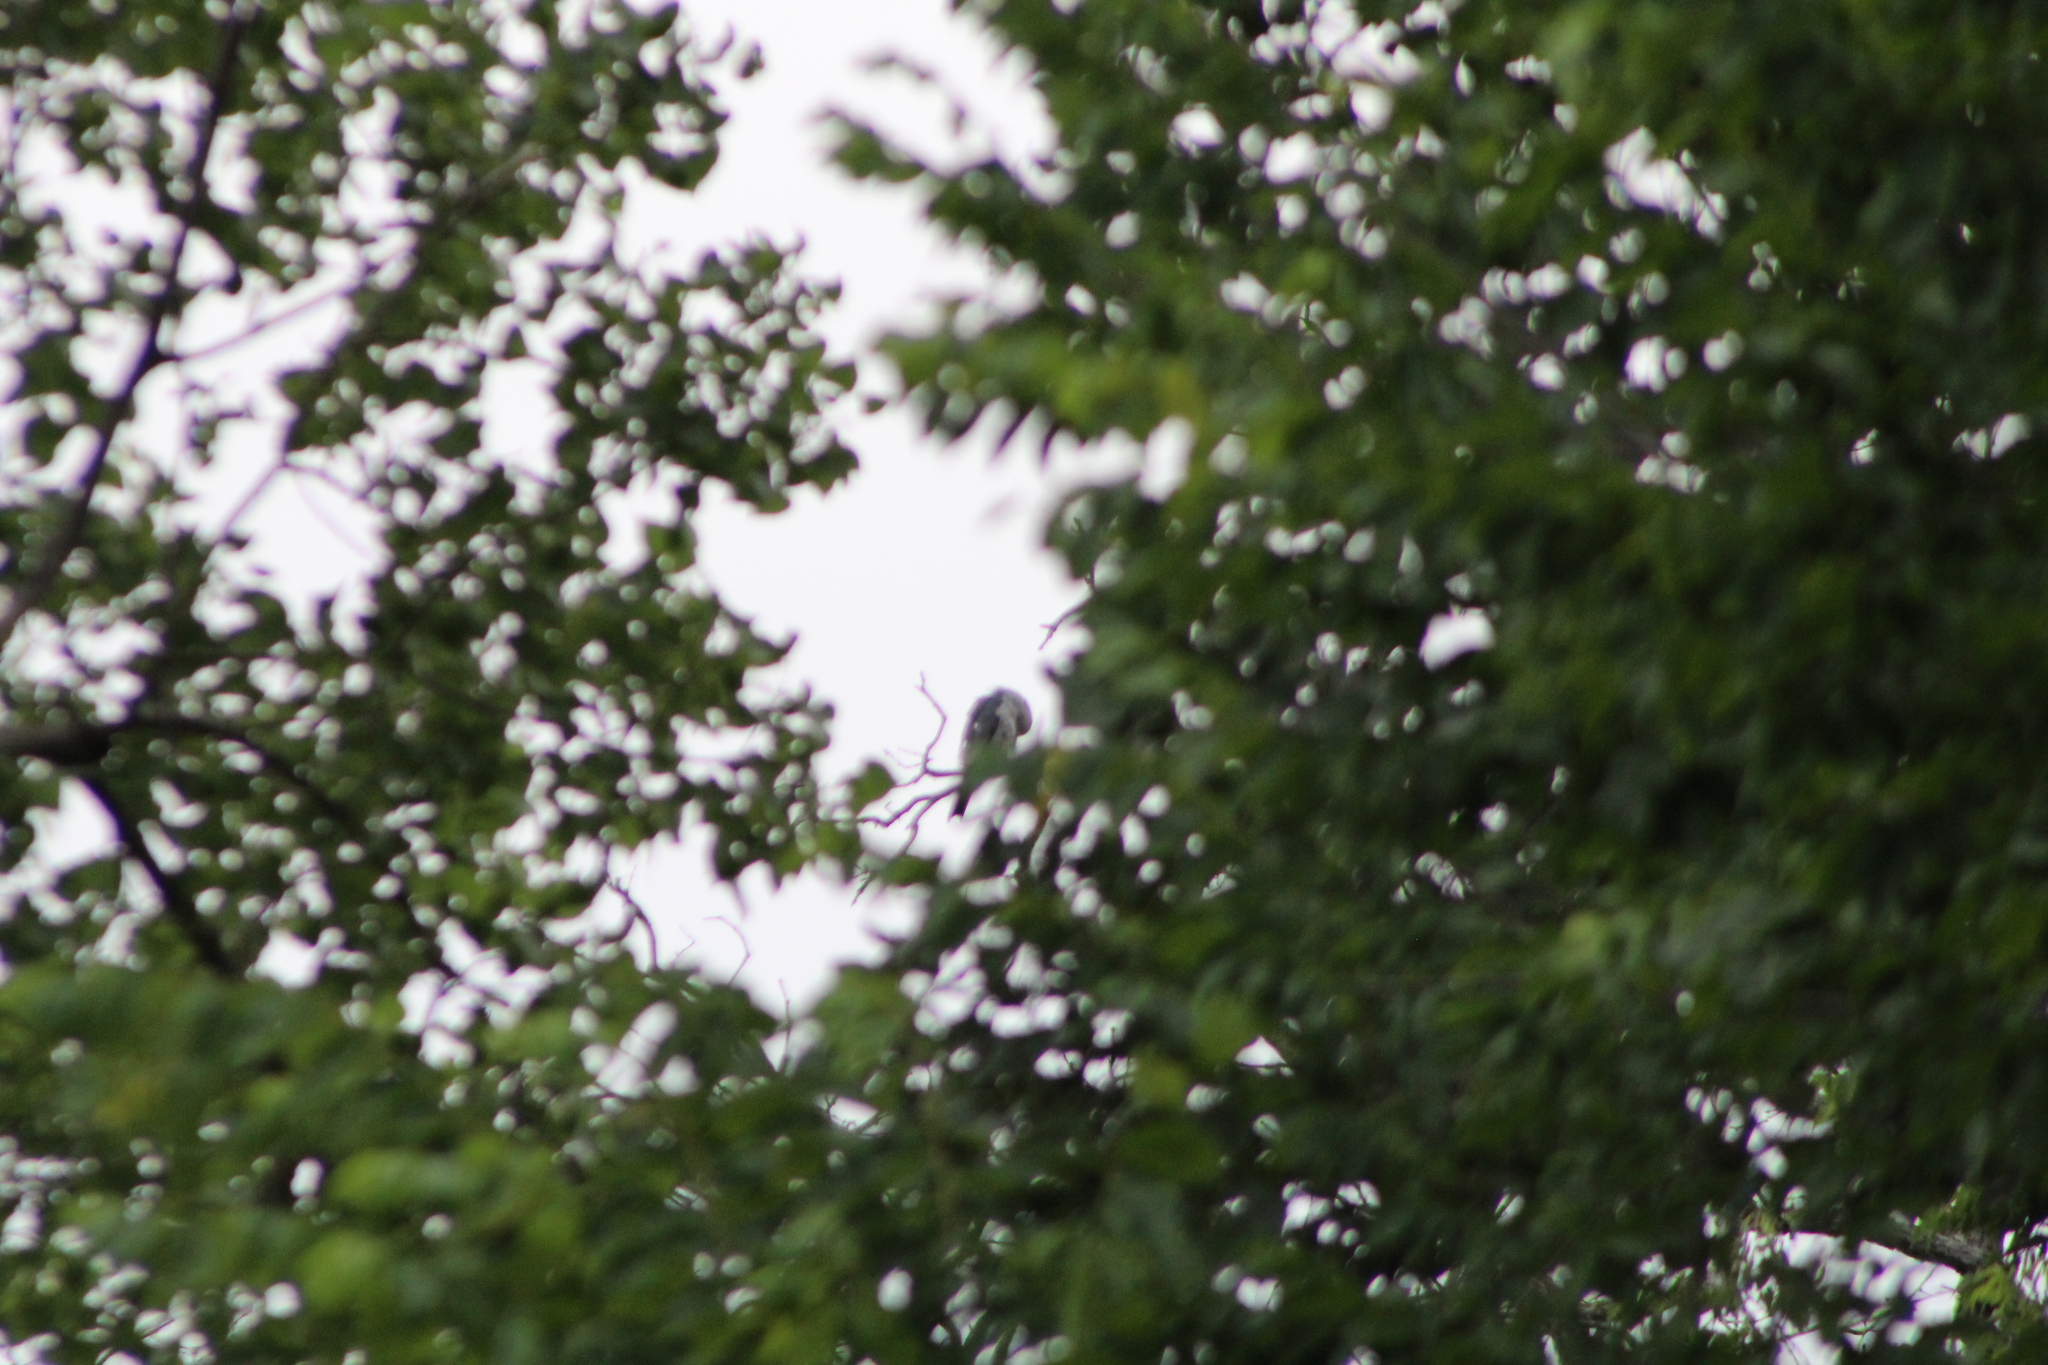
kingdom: Animalia
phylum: Chordata
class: Aves
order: Accipitriformes
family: Accipitridae
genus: Ictinia
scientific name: Ictinia mississippiensis
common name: Mississippi kite
